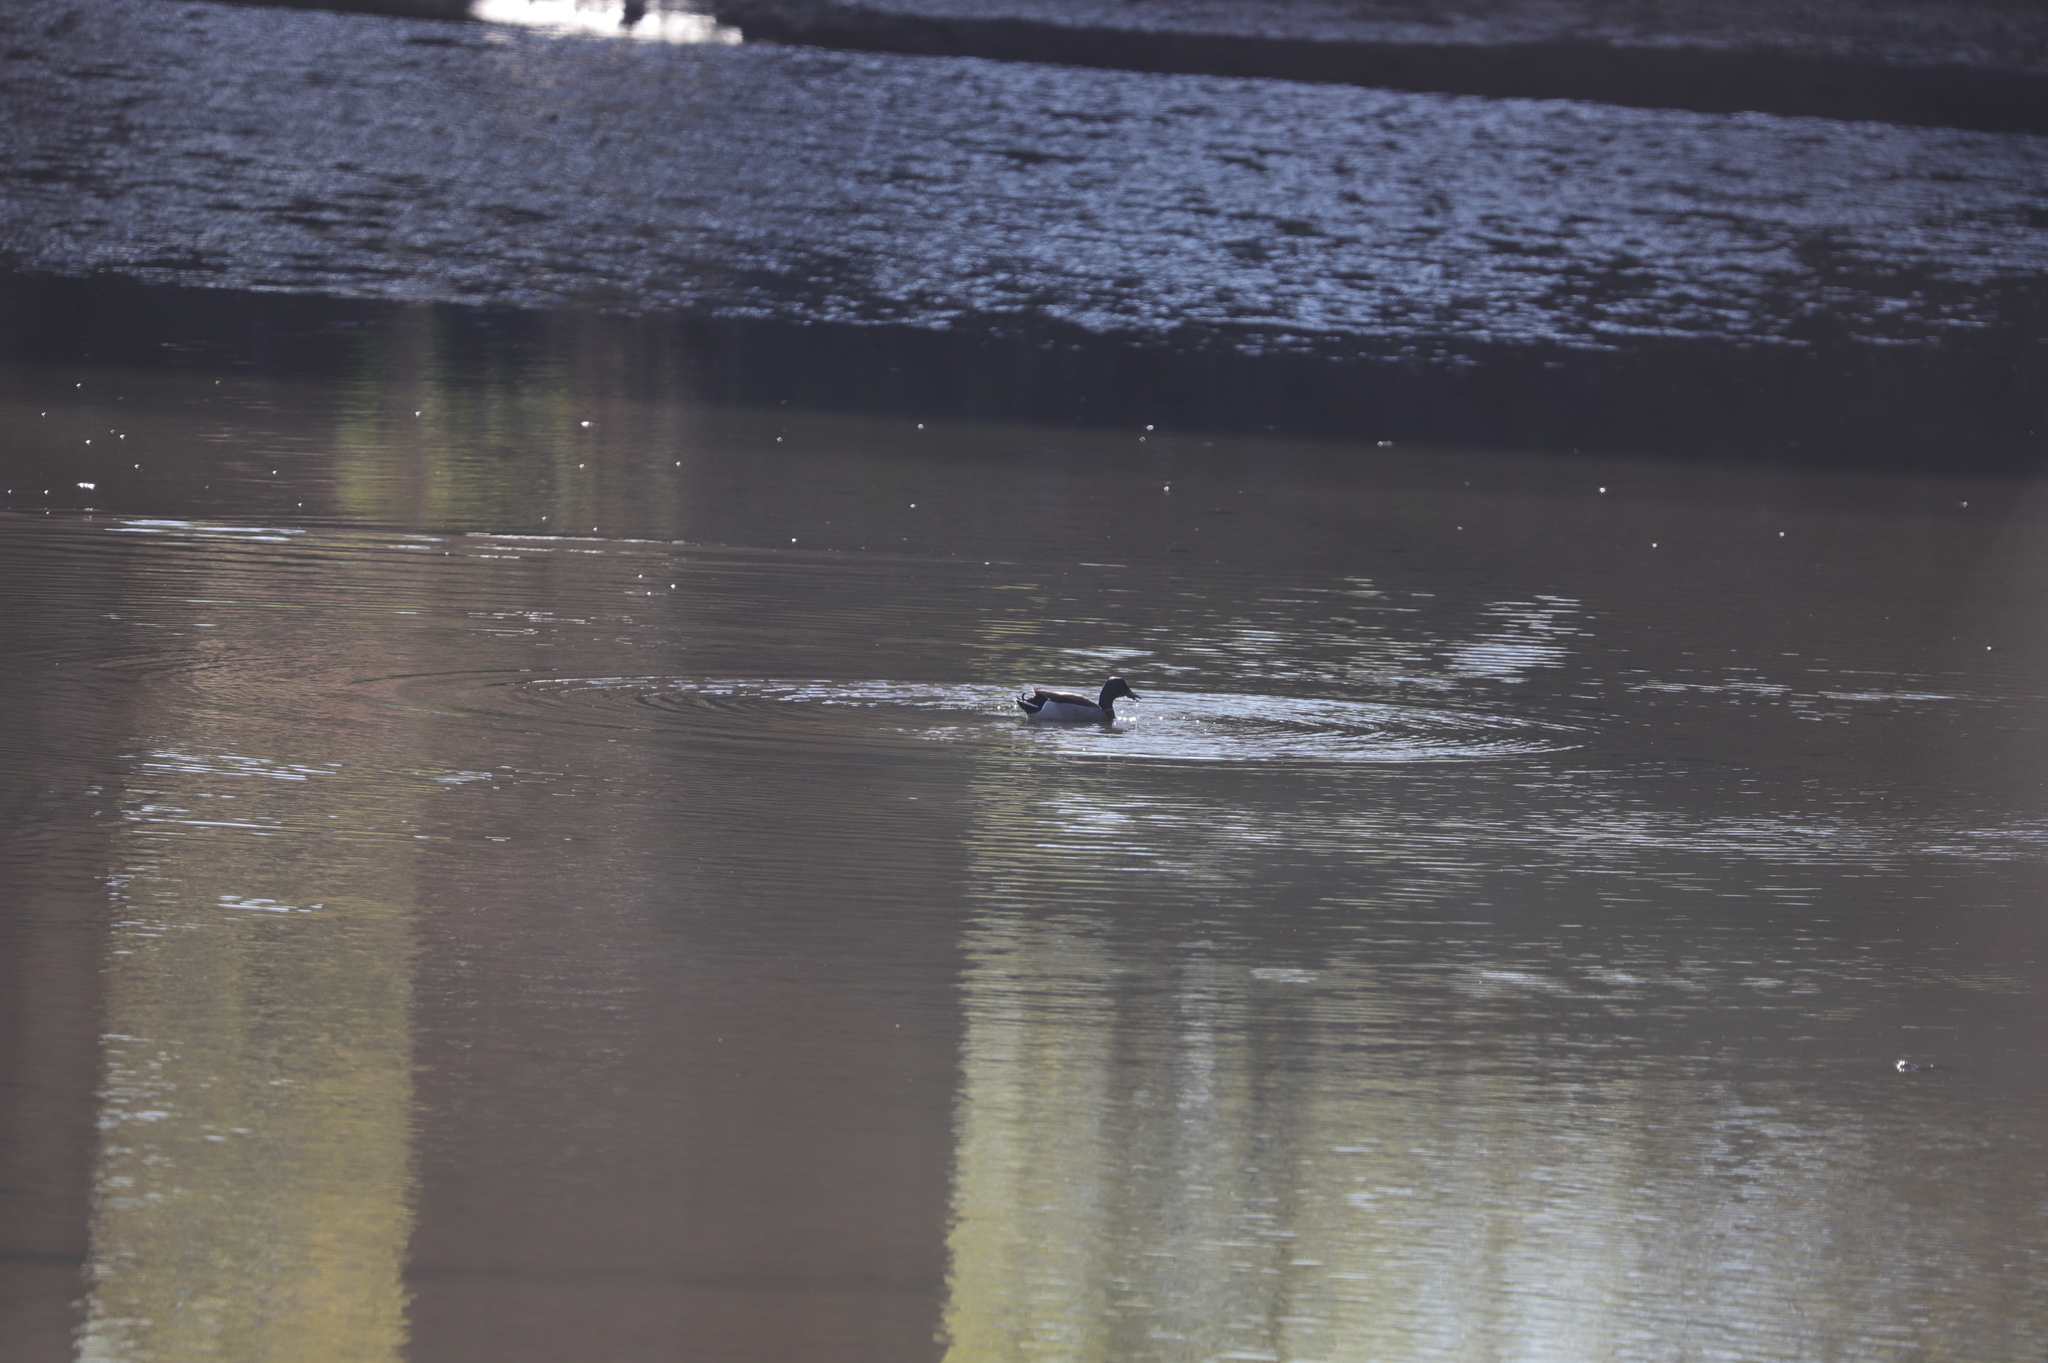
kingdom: Animalia
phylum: Chordata
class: Aves
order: Anseriformes
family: Anatidae
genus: Anas
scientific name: Anas platyrhynchos
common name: Mallard
